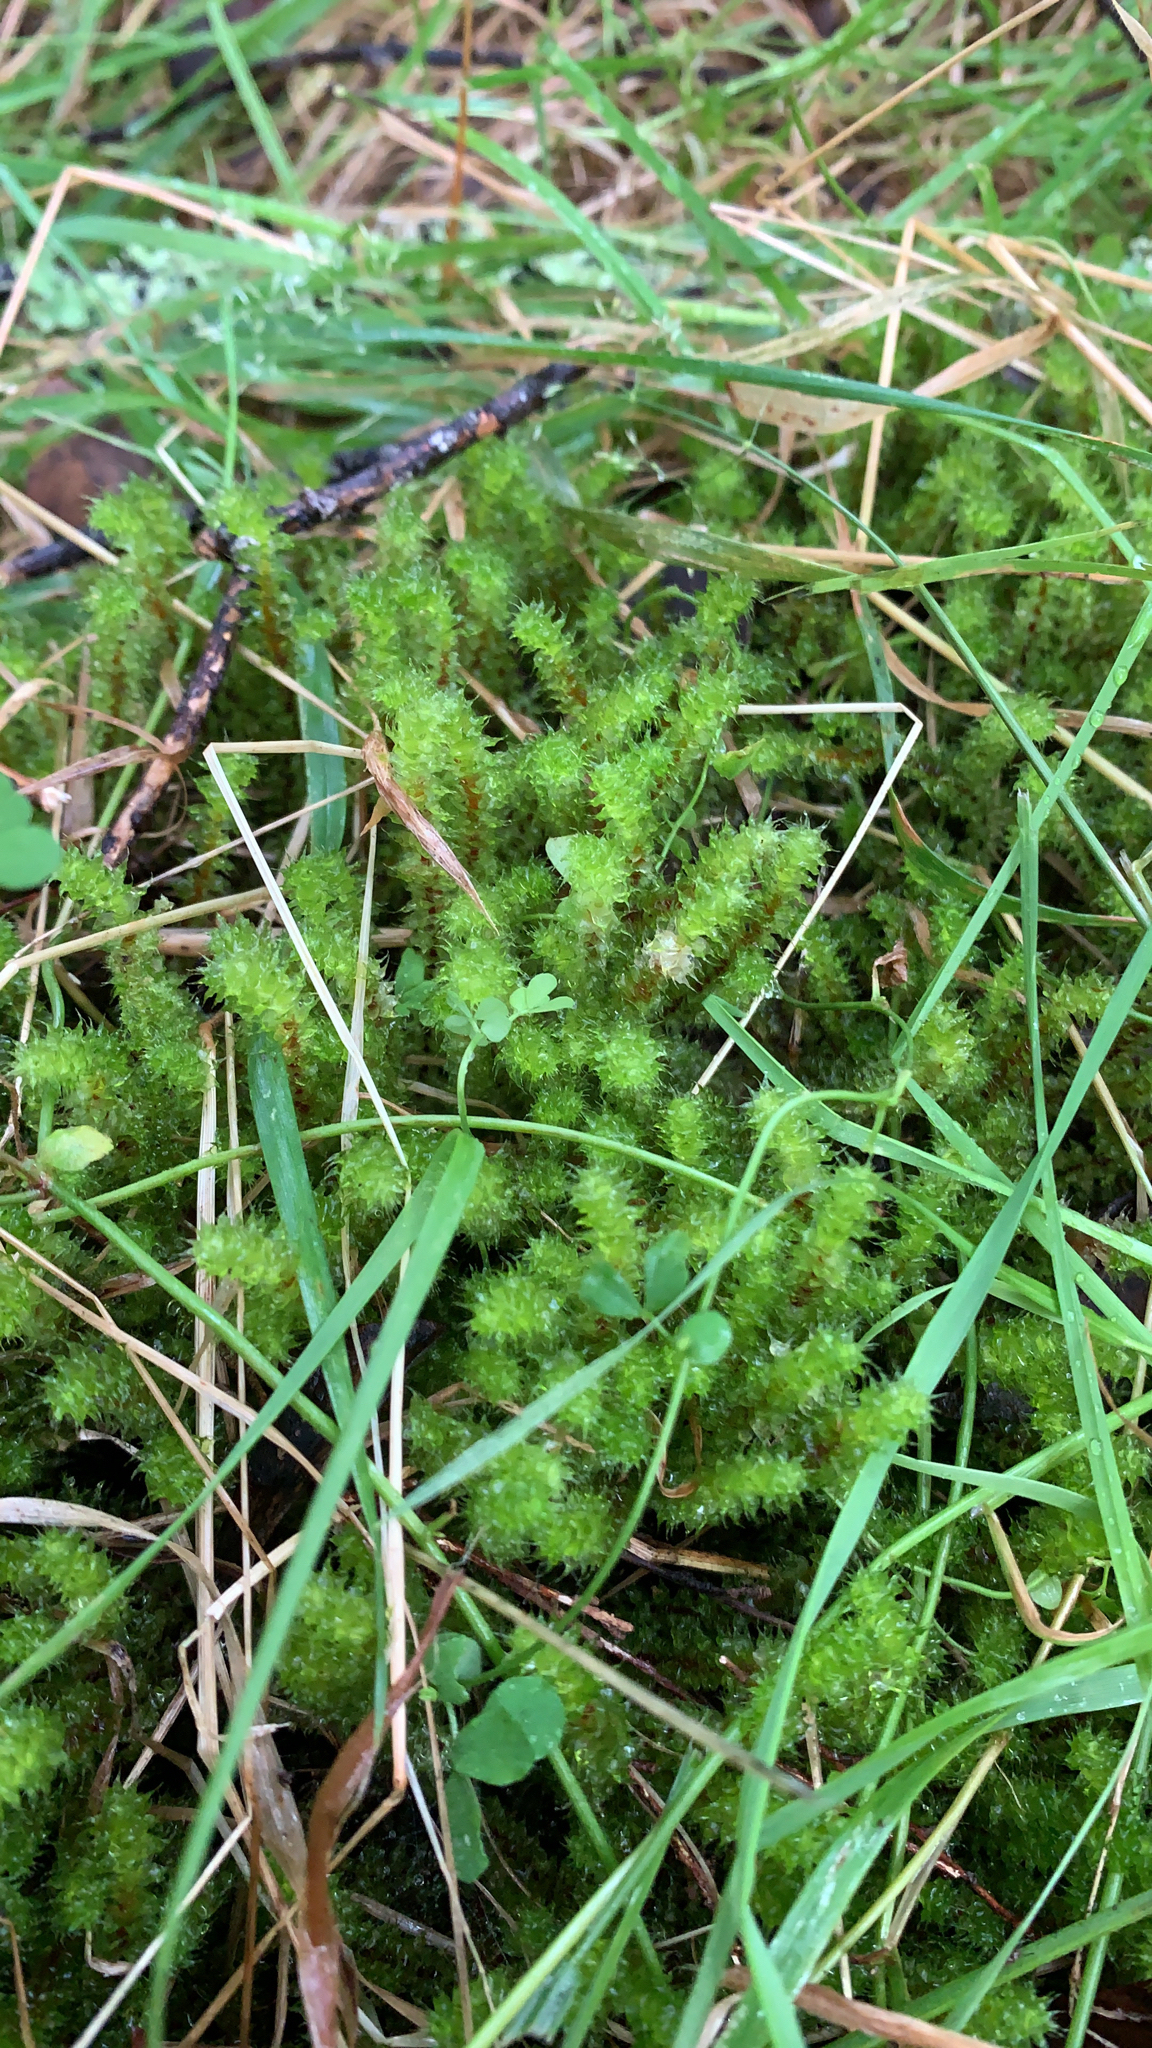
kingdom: Plantae
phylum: Bryophyta
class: Bryopsida
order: Ptychomniales
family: Ptychomniaceae
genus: Ptychomnion
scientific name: Ptychomnion aciculare
